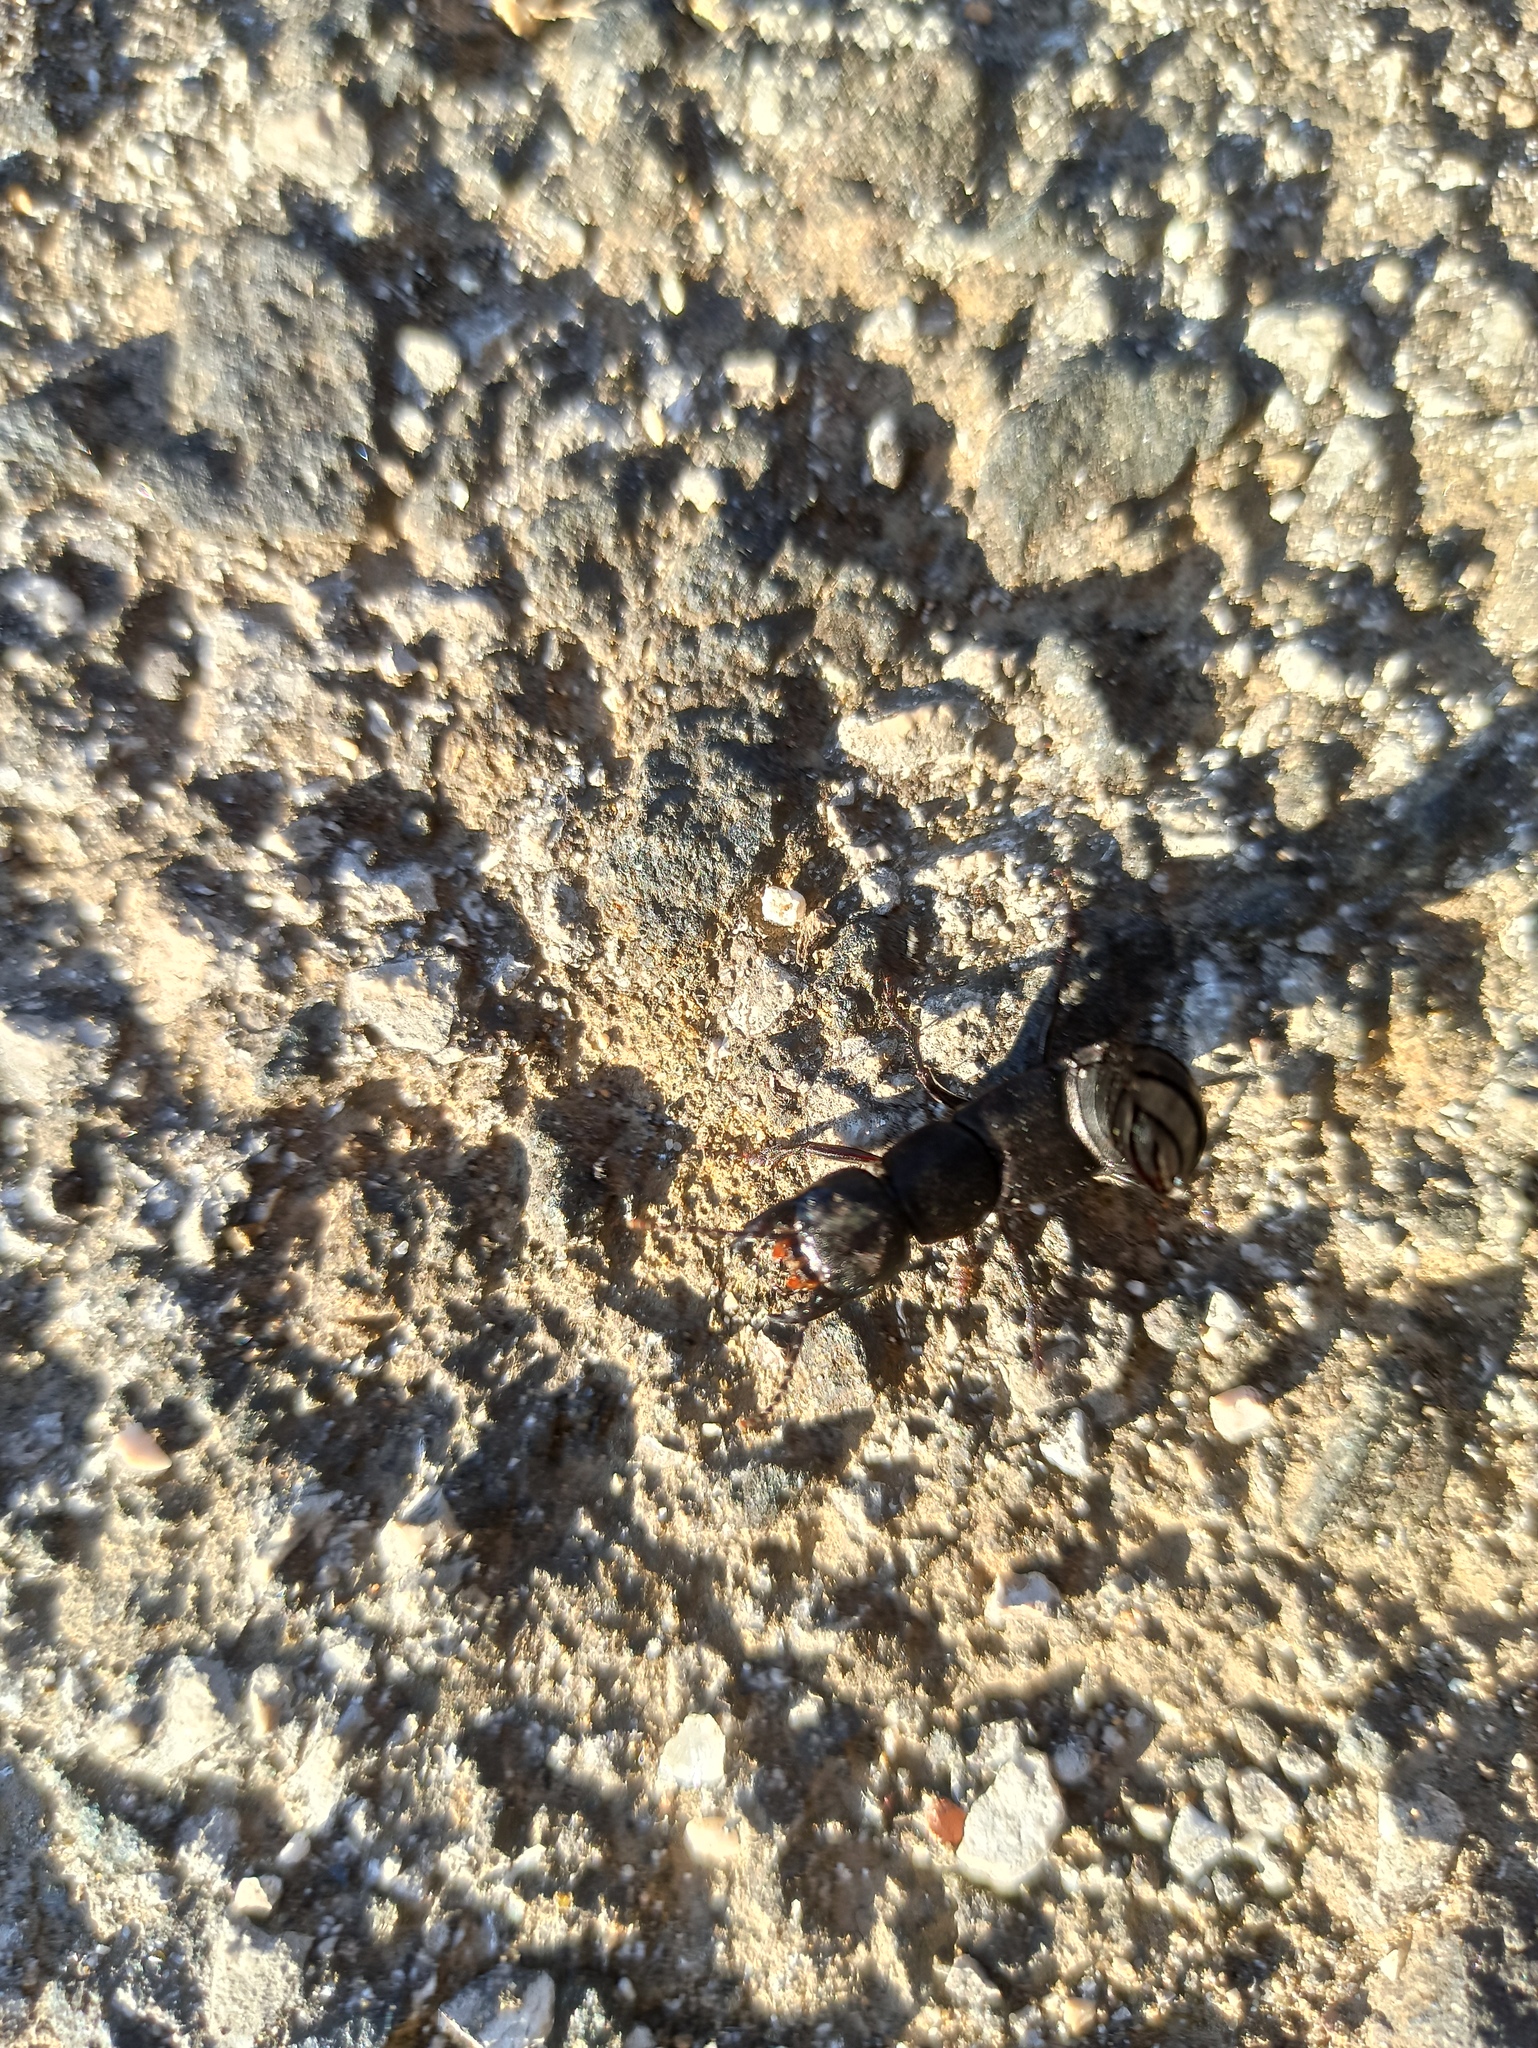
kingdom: Animalia
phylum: Arthropoda
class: Insecta
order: Coleoptera
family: Staphylinidae
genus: Ocypus
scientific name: Ocypus olens
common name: Devil's coach-horse
